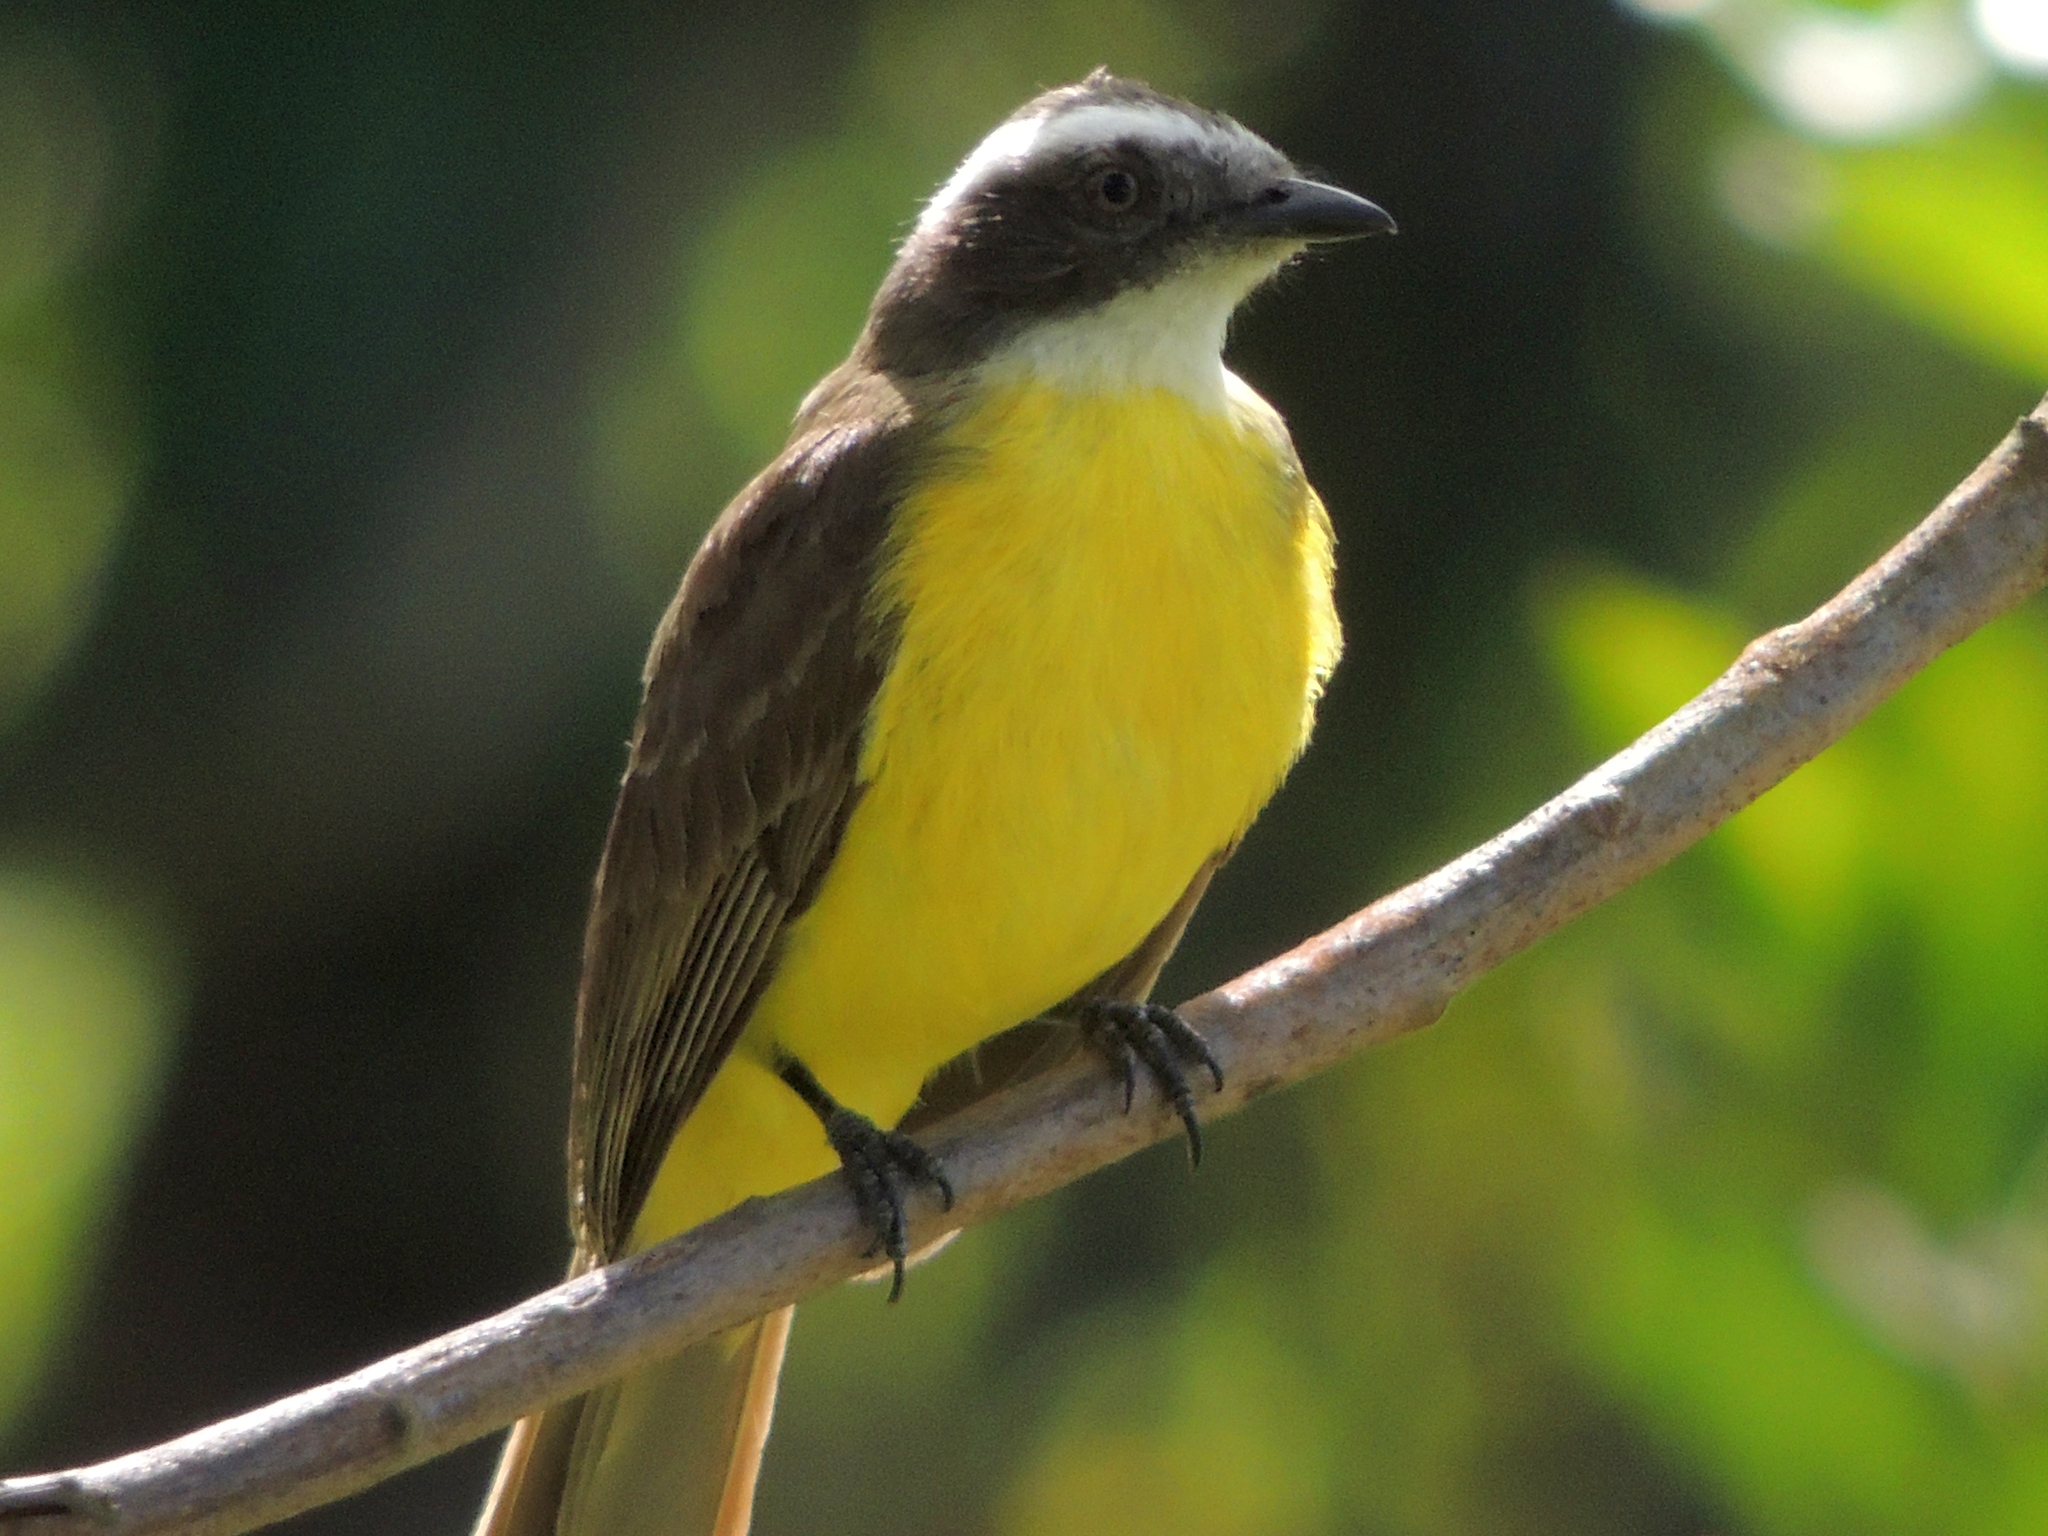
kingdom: Animalia
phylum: Chordata
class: Aves
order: Passeriformes
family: Tyrannidae
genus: Myiozetetes
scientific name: Myiozetetes similis
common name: Social flycatcher
